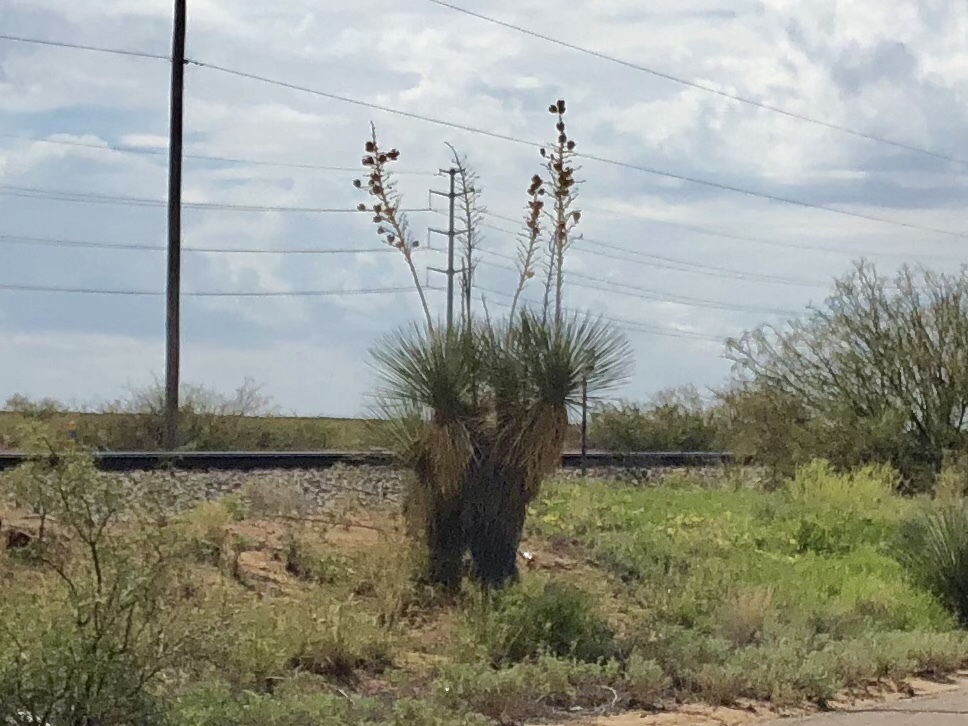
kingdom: Plantae
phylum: Tracheophyta
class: Liliopsida
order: Asparagales
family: Asparagaceae
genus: Yucca
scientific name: Yucca elata
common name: Palmella
